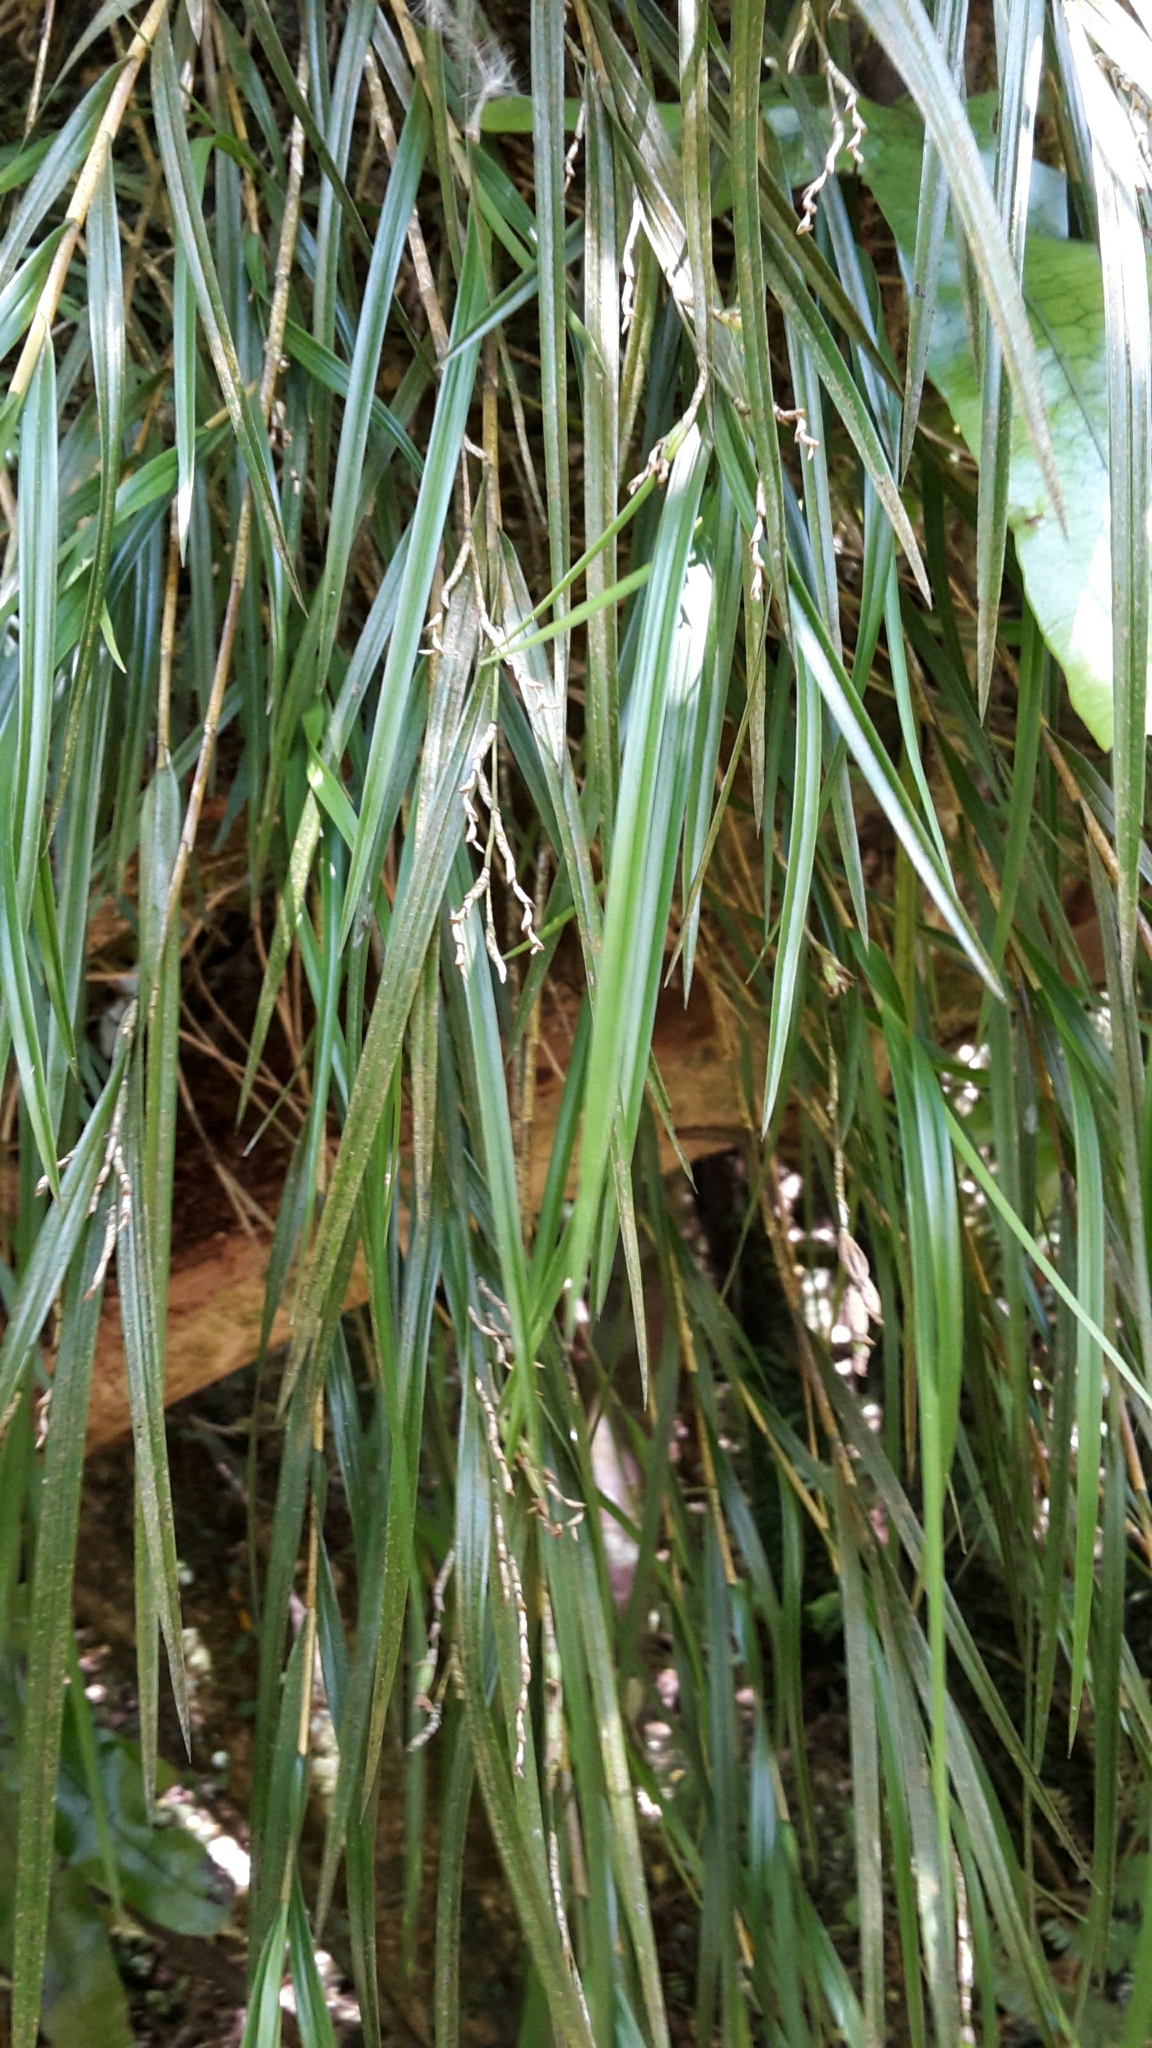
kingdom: Plantae
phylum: Tracheophyta
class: Liliopsida
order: Asparagales
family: Orchidaceae
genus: Earina
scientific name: Earina mucronata
